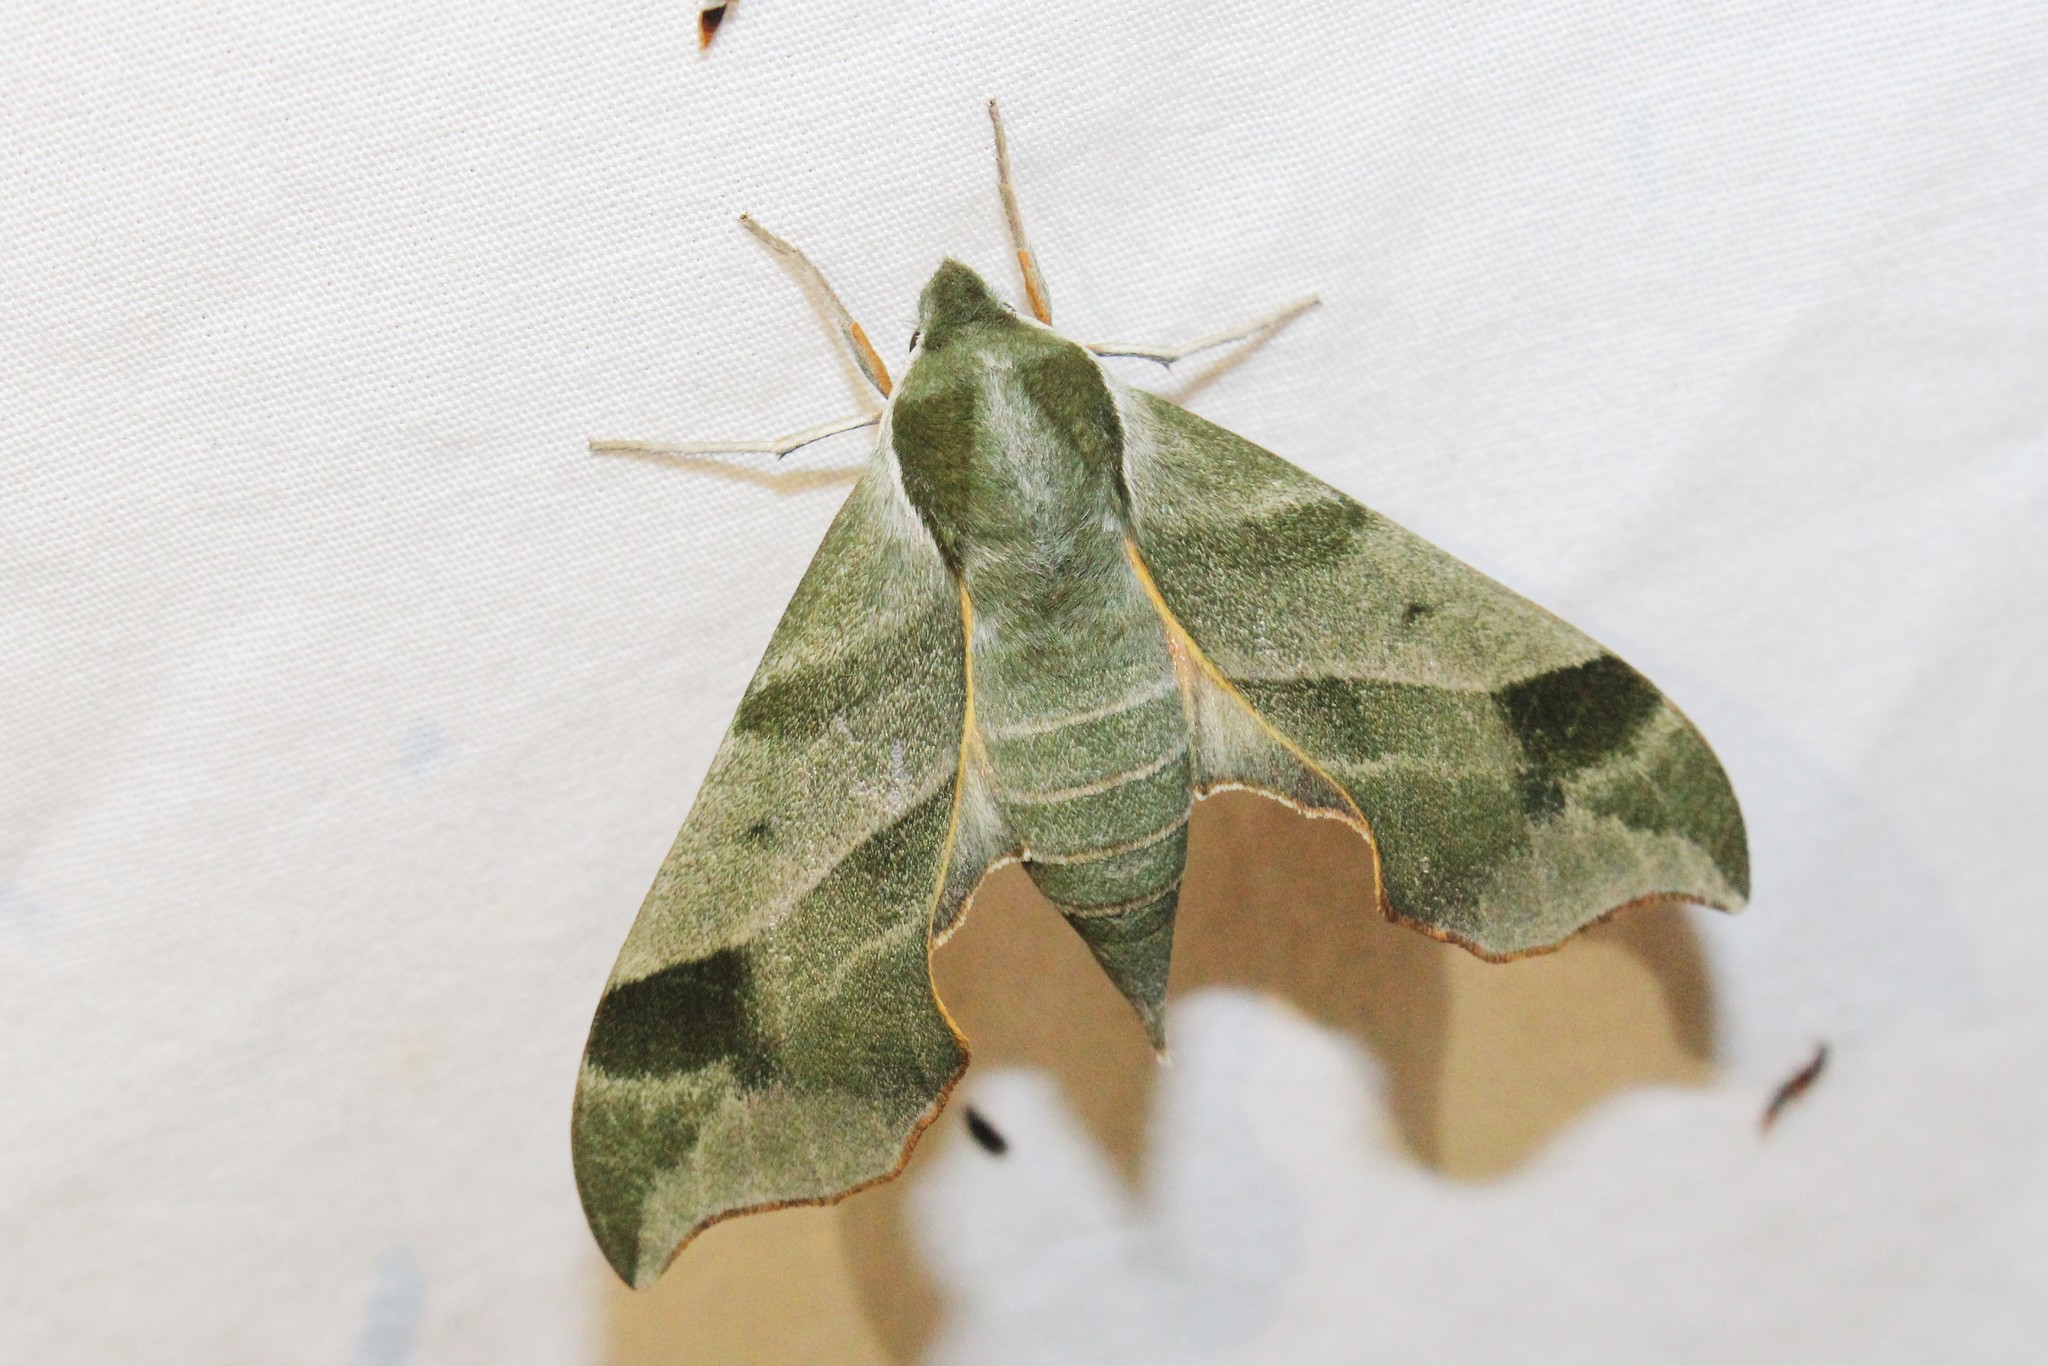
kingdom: Animalia
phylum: Arthropoda
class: Insecta
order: Lepidoptera
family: Sphingidae
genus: Darapsa
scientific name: Darapsa myron
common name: Hog sphinx
